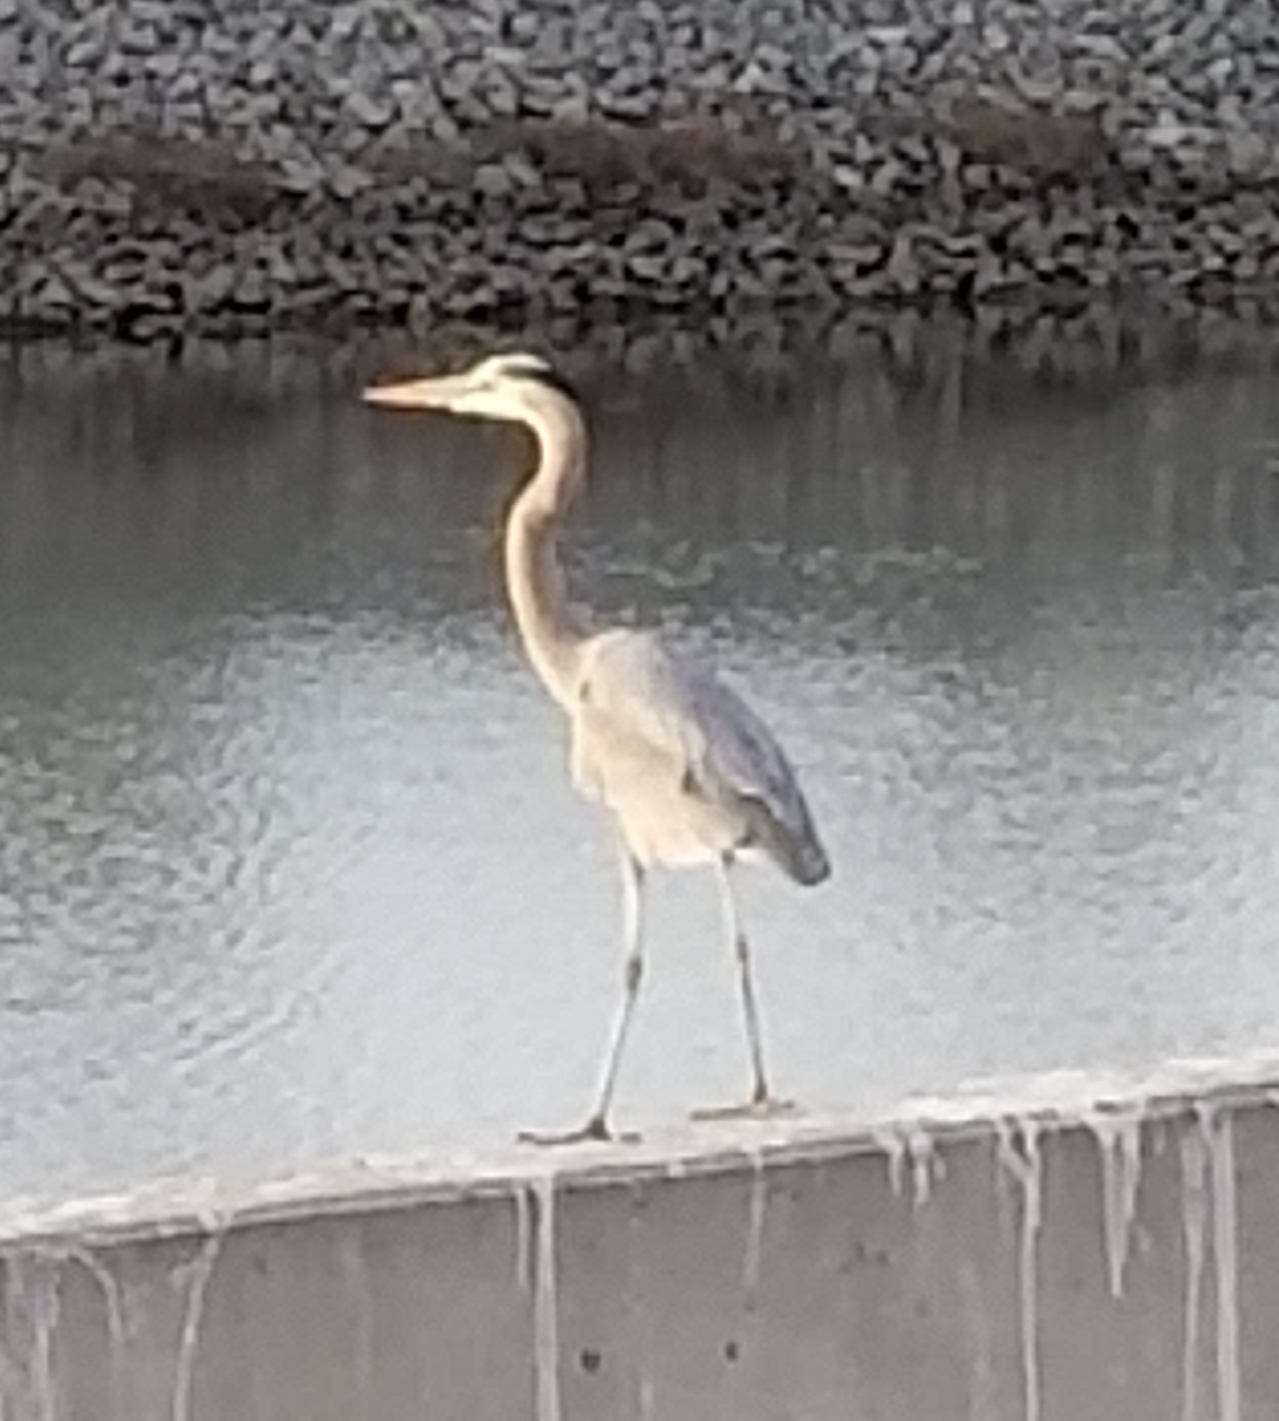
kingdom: Animalia
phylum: Chordata
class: Aves
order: Pelecaniformes
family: Ardeidae
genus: Ardea
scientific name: Ardea herodias
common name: Great blue heron
